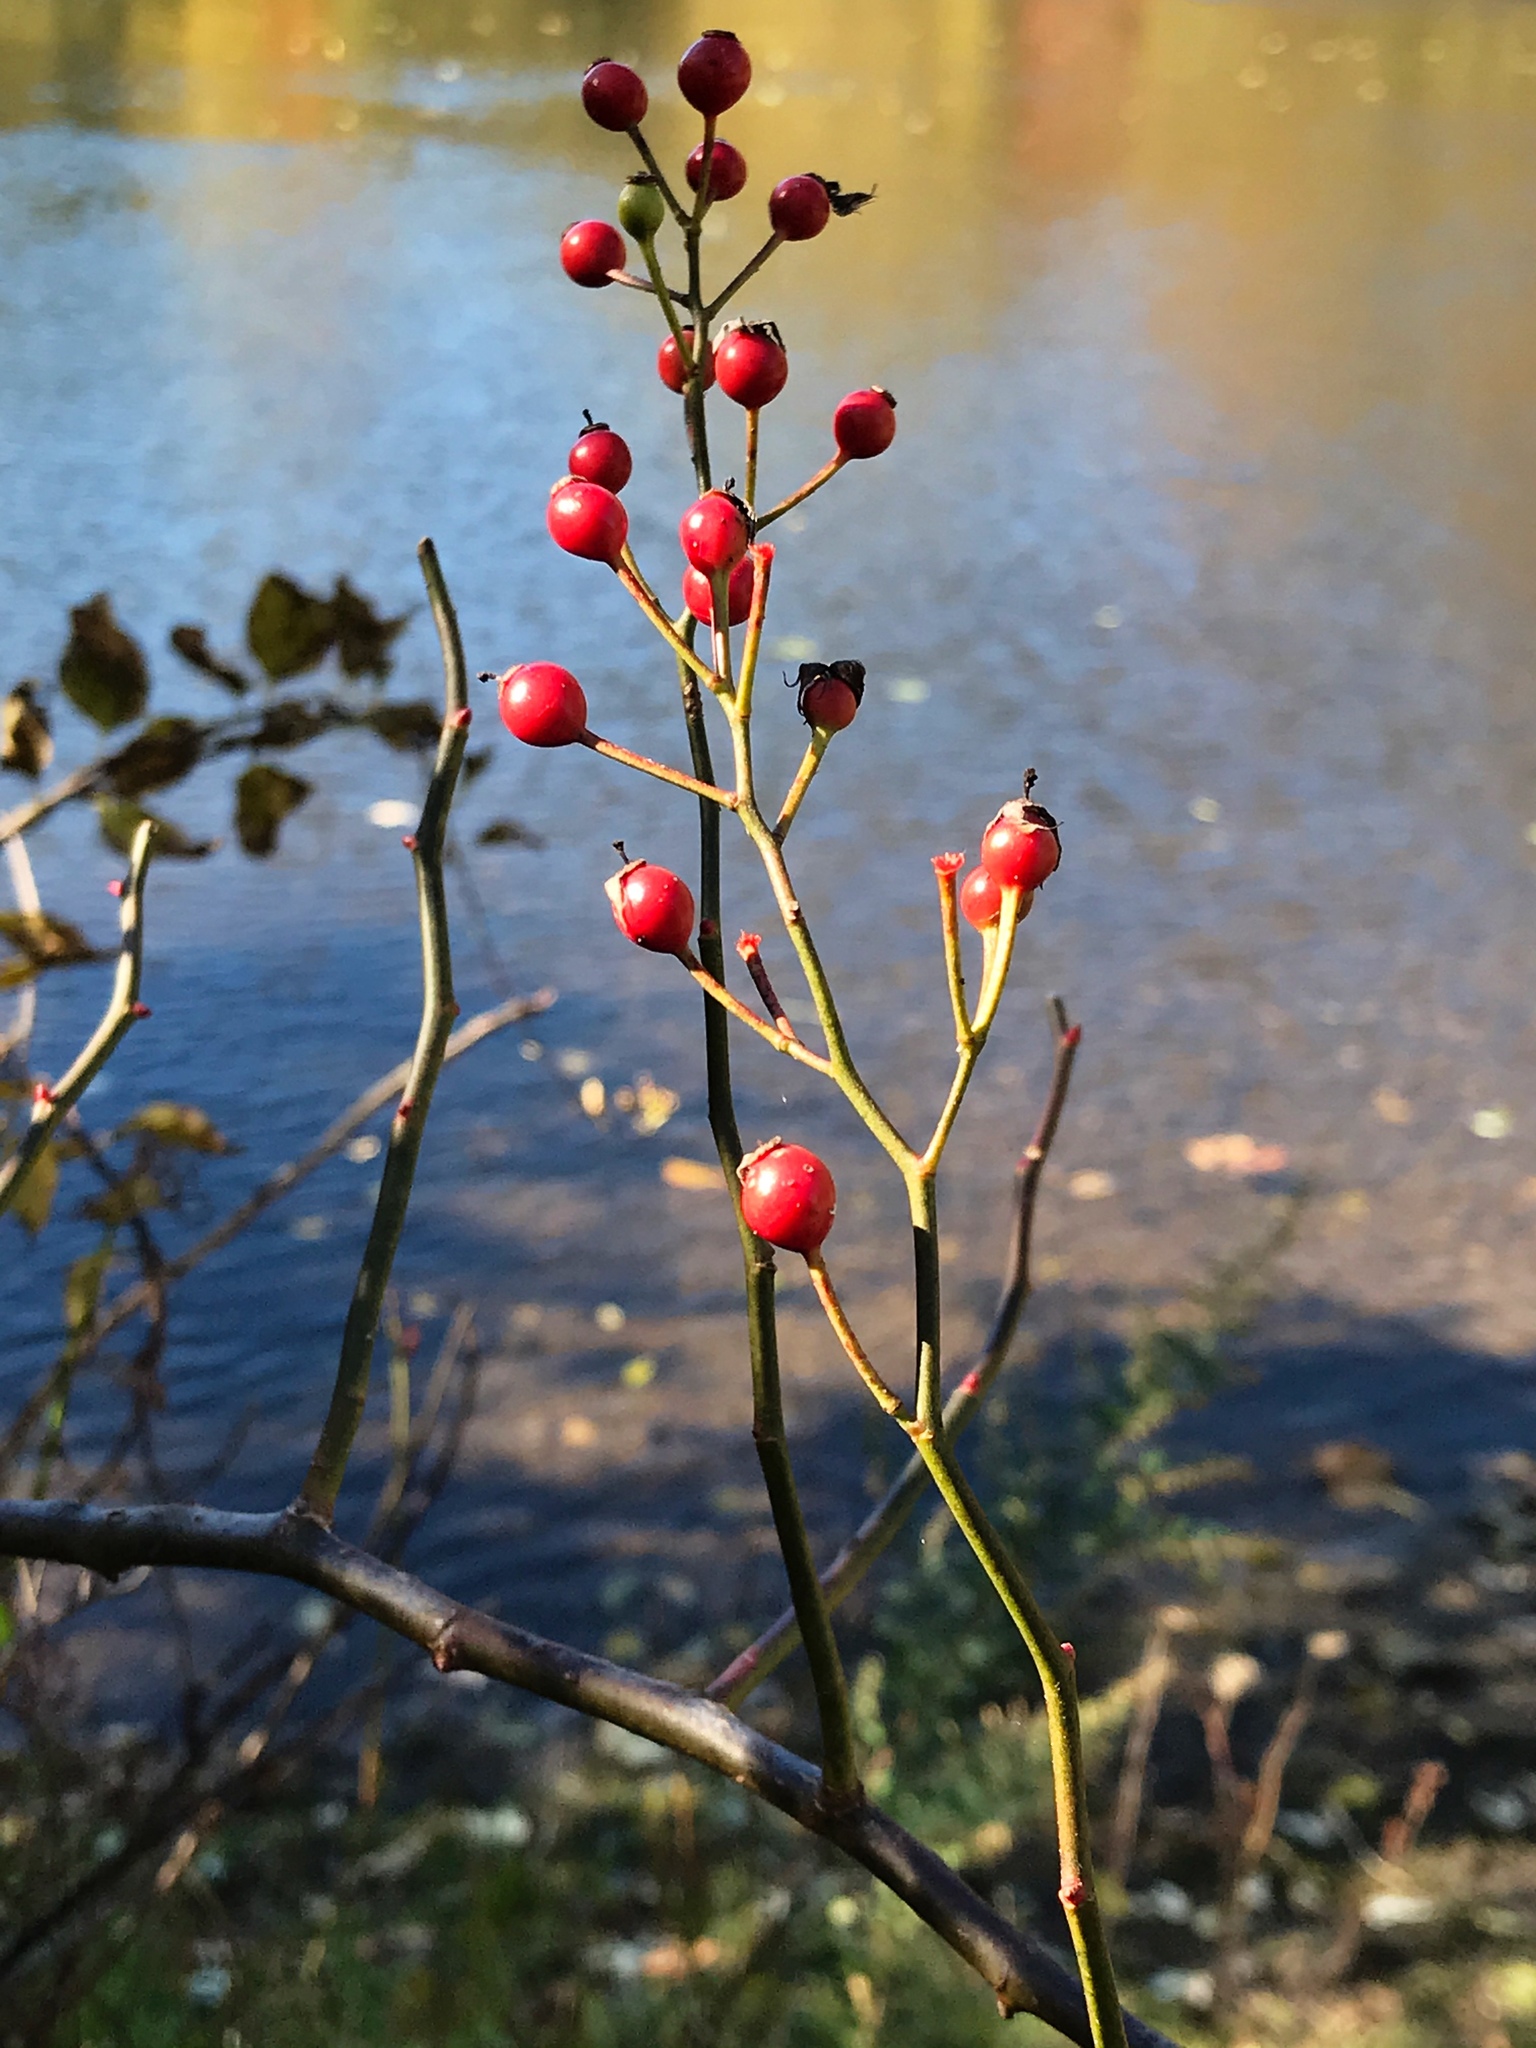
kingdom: Plantae
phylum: Tracheophyta
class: Magnoliopsida
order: Rosales
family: Rosaceae
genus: Rosa
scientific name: Rosa multiflora
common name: Multiflora rose
